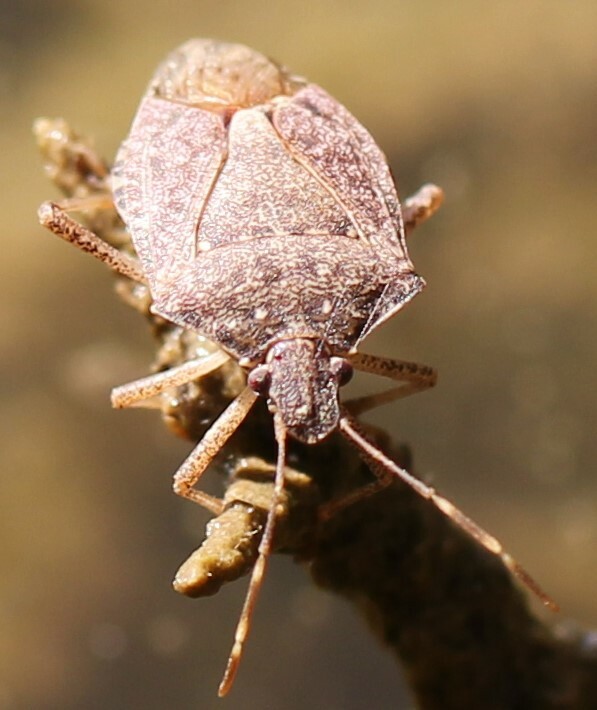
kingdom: Animalia
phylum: Arthropoda
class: Insecta
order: Hemiptera
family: Pentatomidae
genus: Halyomorpha
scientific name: Halyomorpha halys
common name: Brown marmorated stink bug
